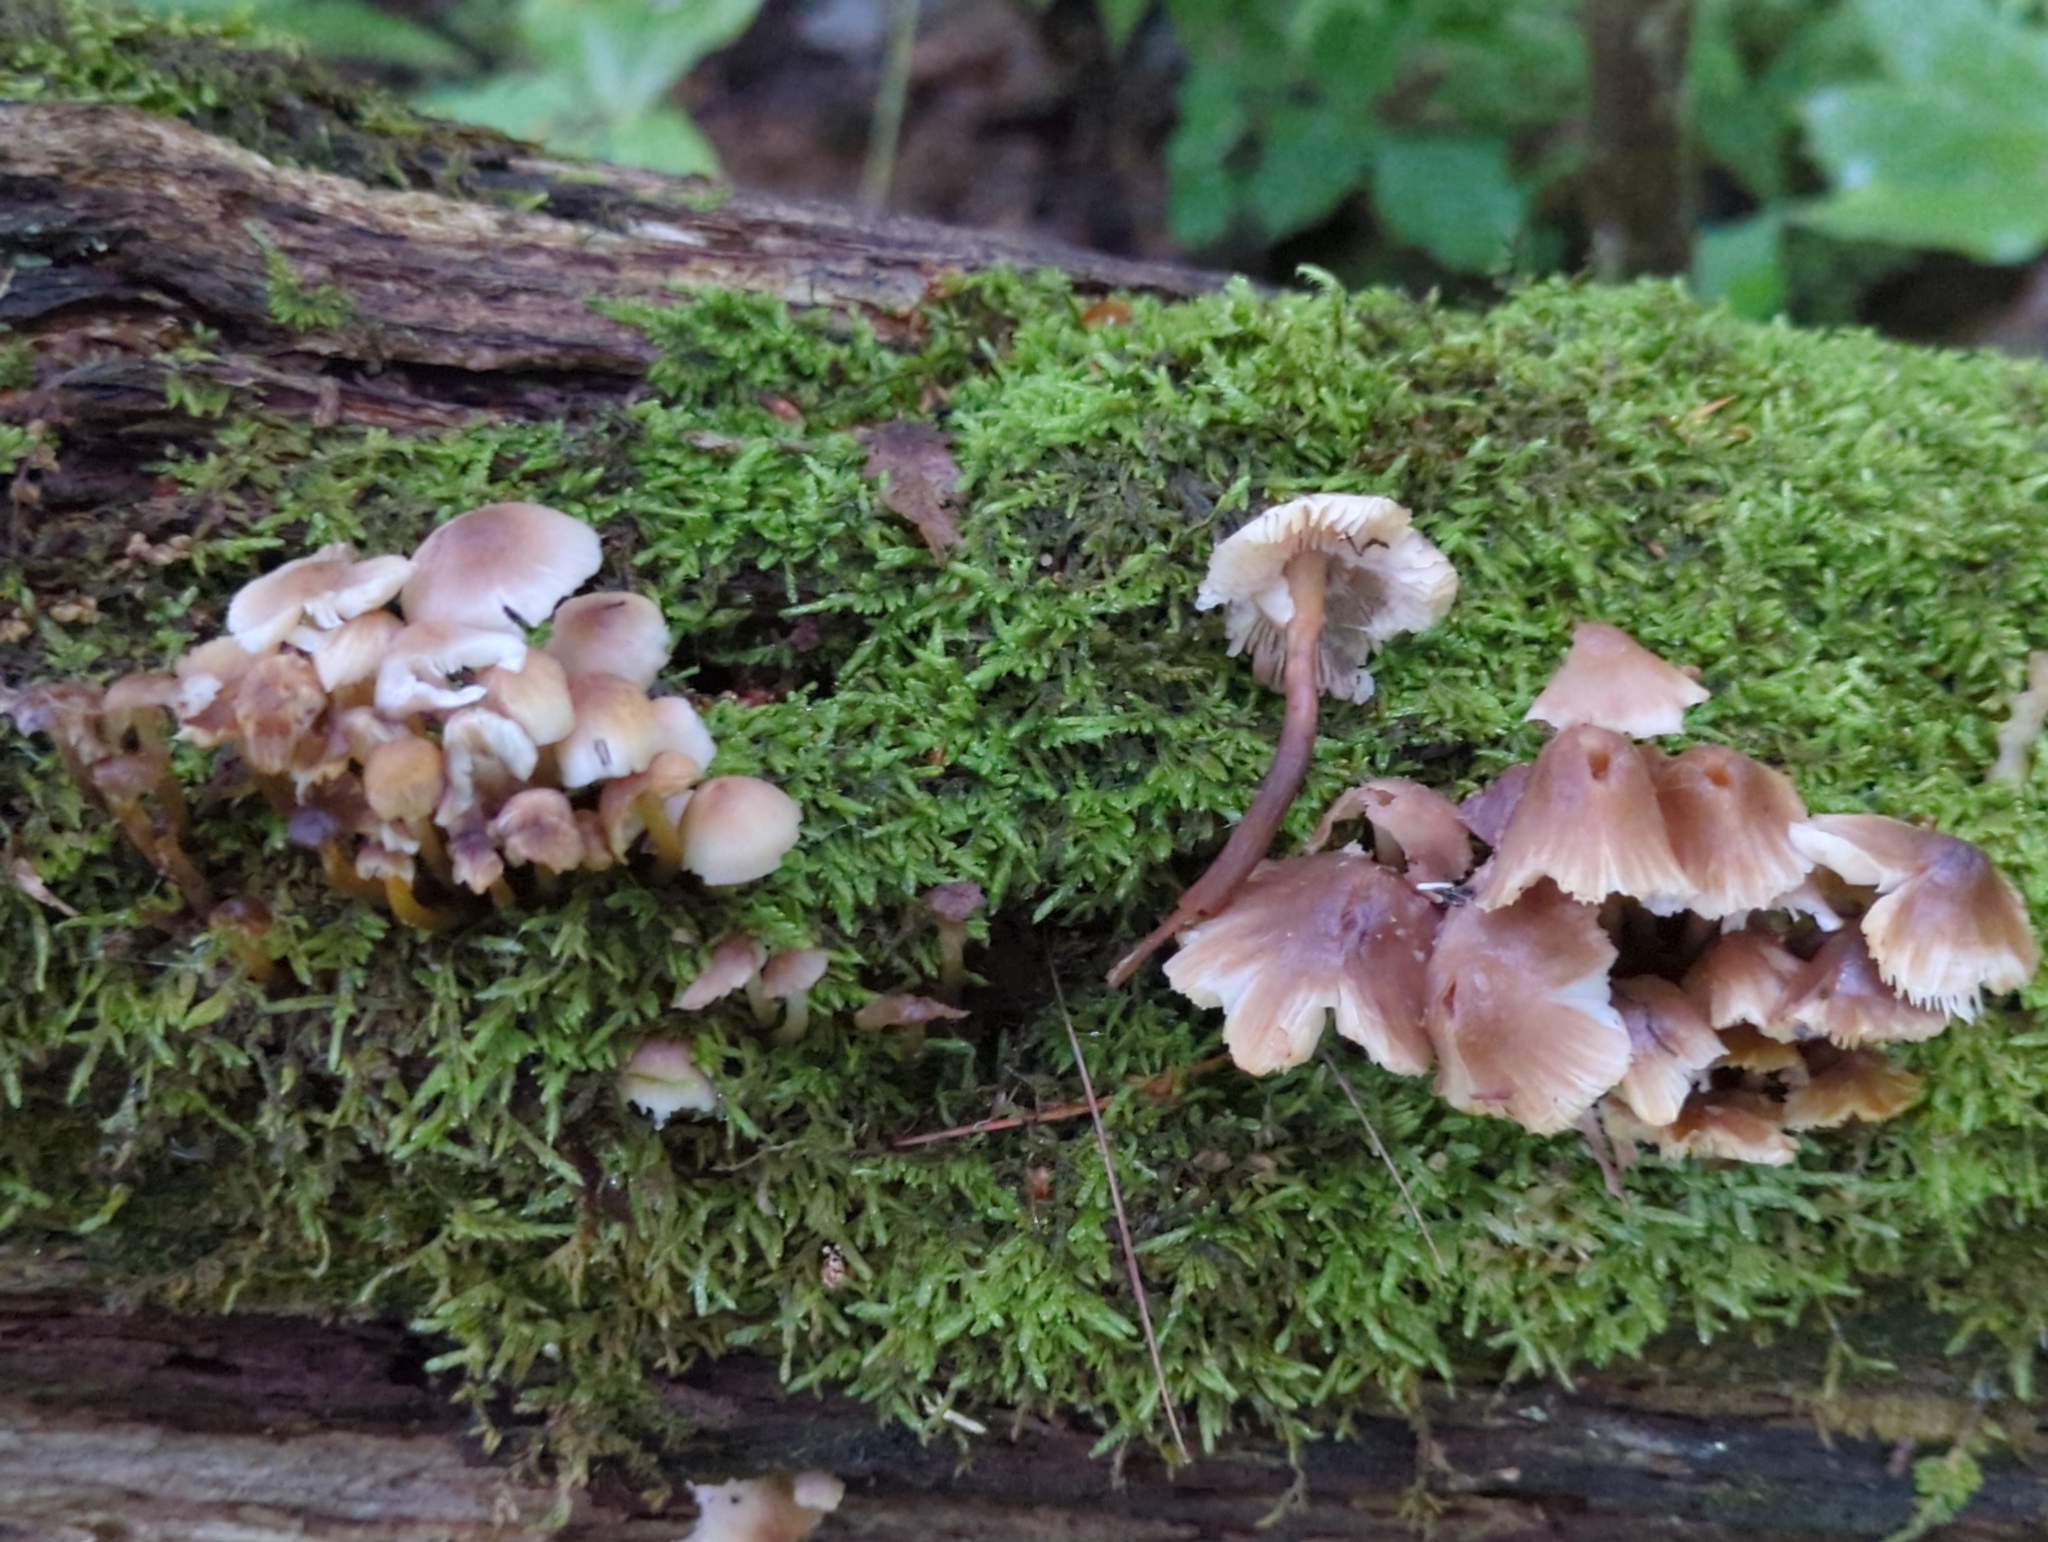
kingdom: Fungi
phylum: Basidiomycota
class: Agaricomycetes
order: Agaricales
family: Mycenaceae
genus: Mycena
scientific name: Mycena inclinata
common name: Clustered bonnet
